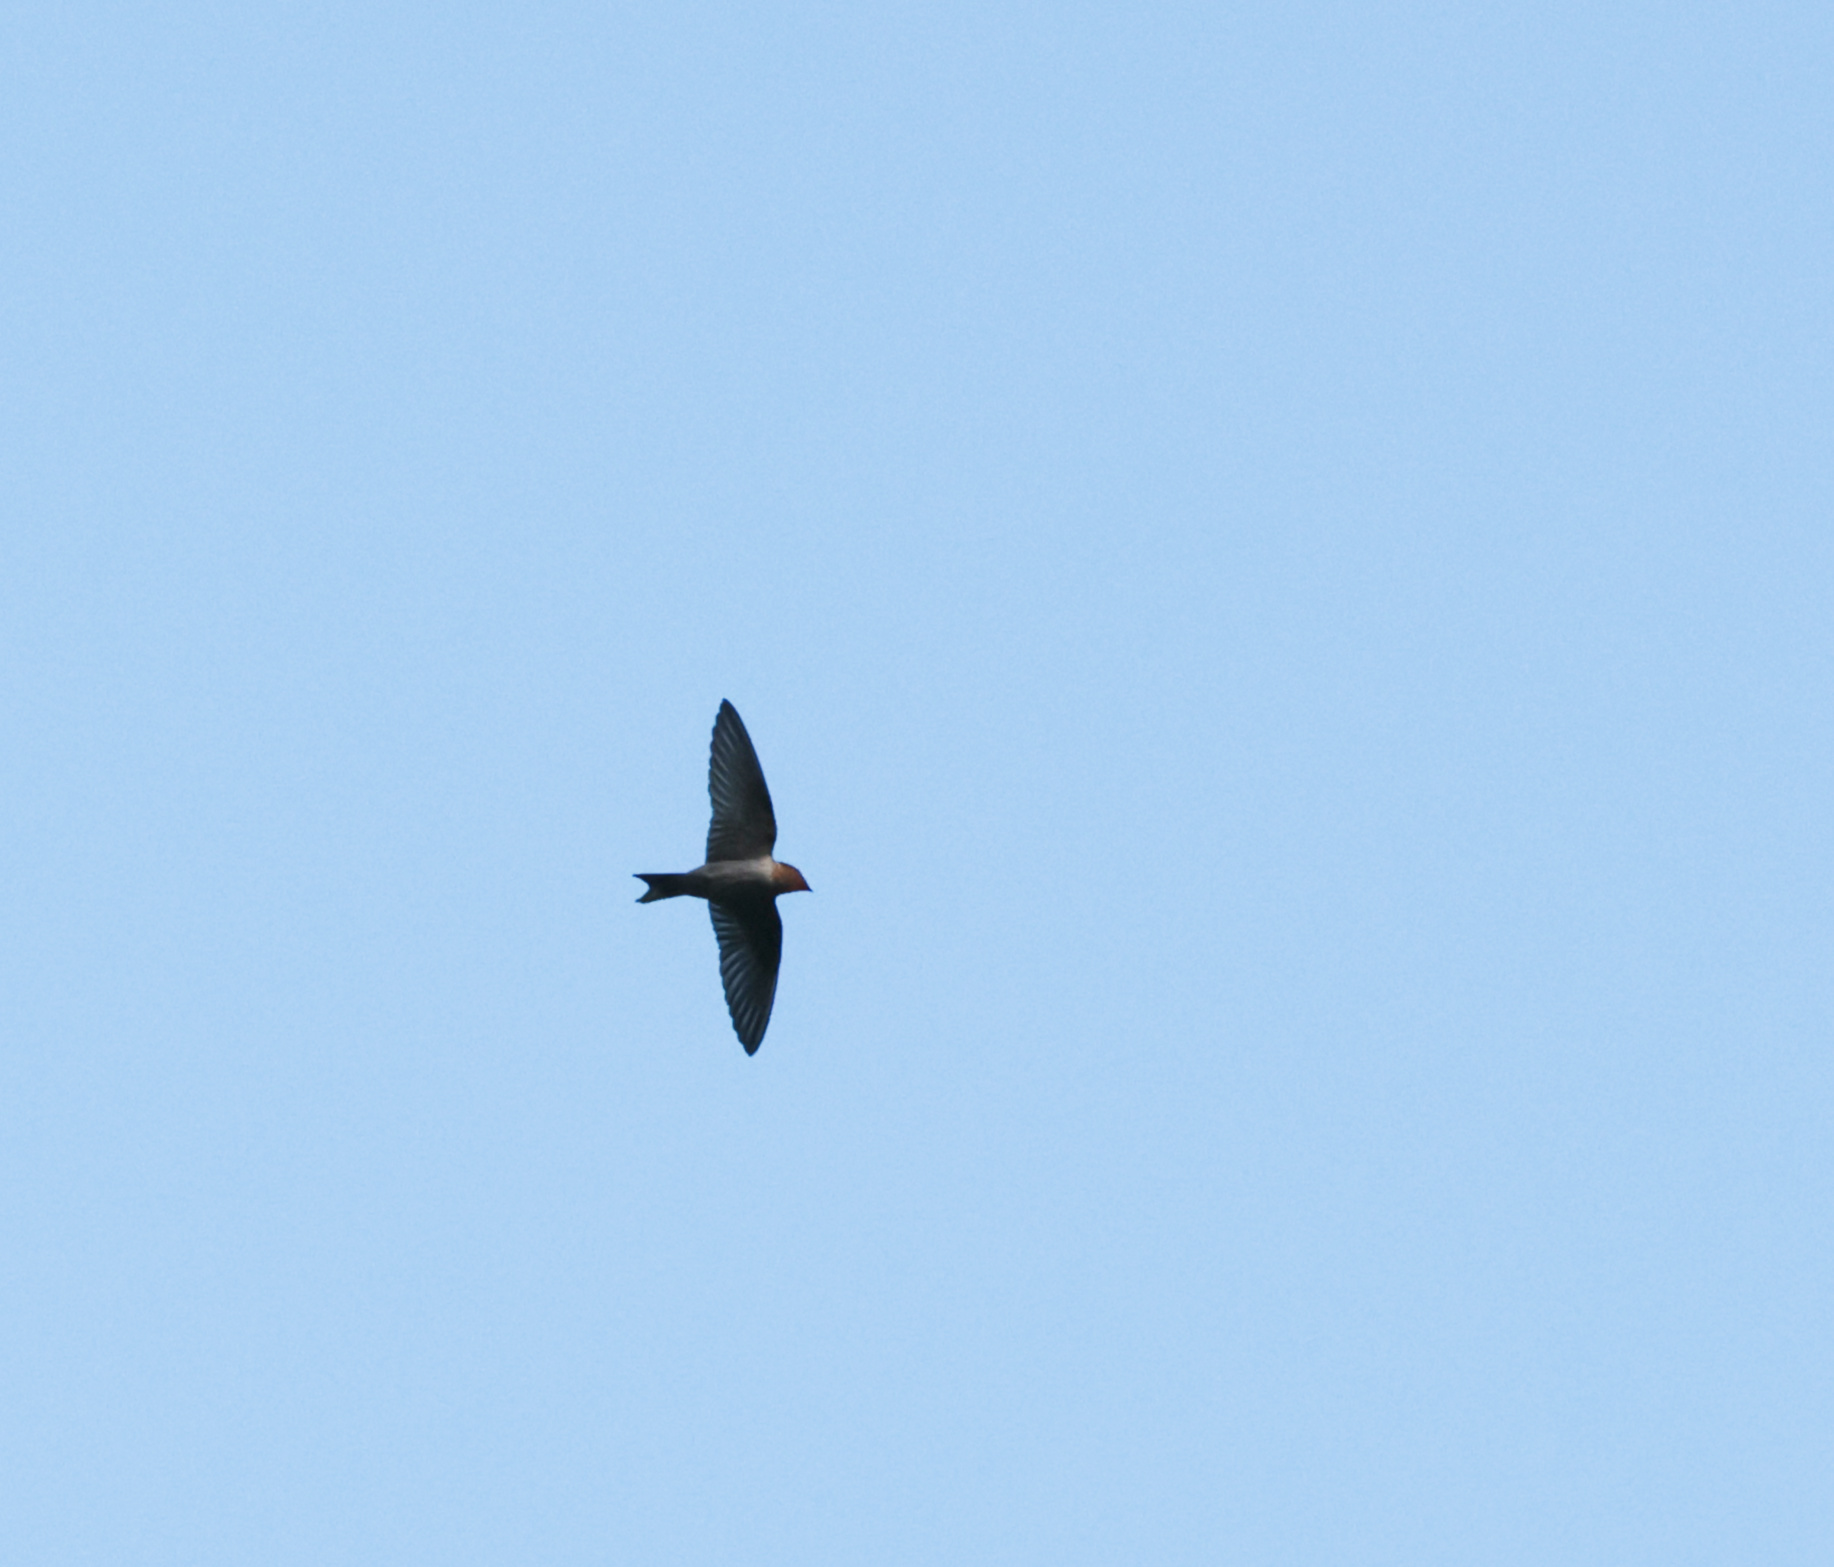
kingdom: Animalia
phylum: Chordata
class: Aves
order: Passeriformes
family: Hirundinidae
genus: Hirundo
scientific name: Hirundo tahitica
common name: Pacific swallow
